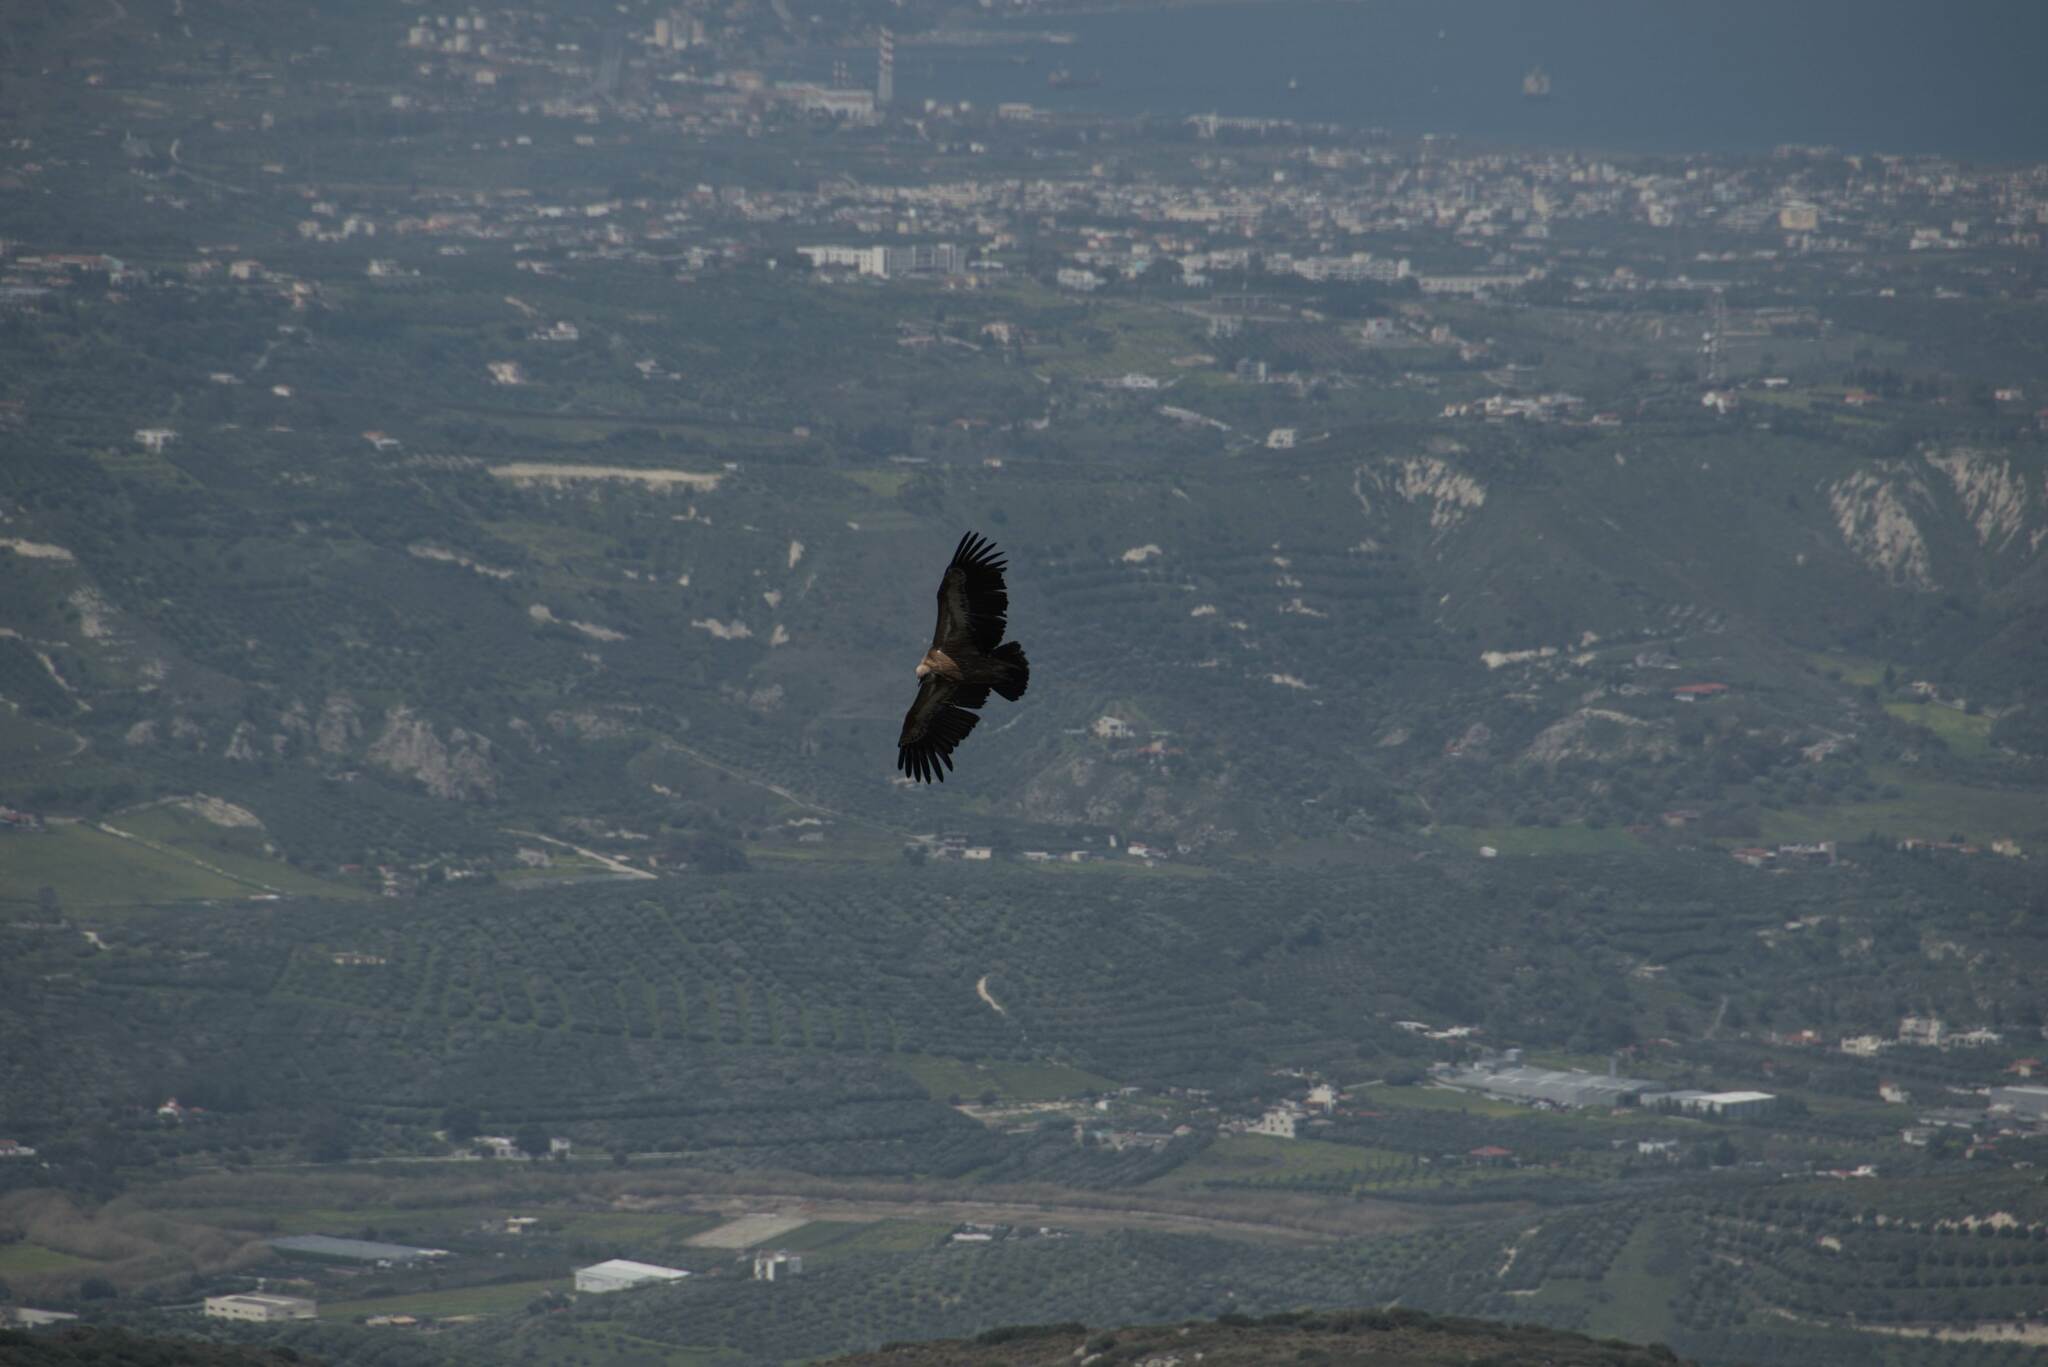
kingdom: Animalia
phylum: Chordata
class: Aves
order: Accipitriformes
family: Accipitridae
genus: Gyps
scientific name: Gyps fulvus
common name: Griffon vulture
